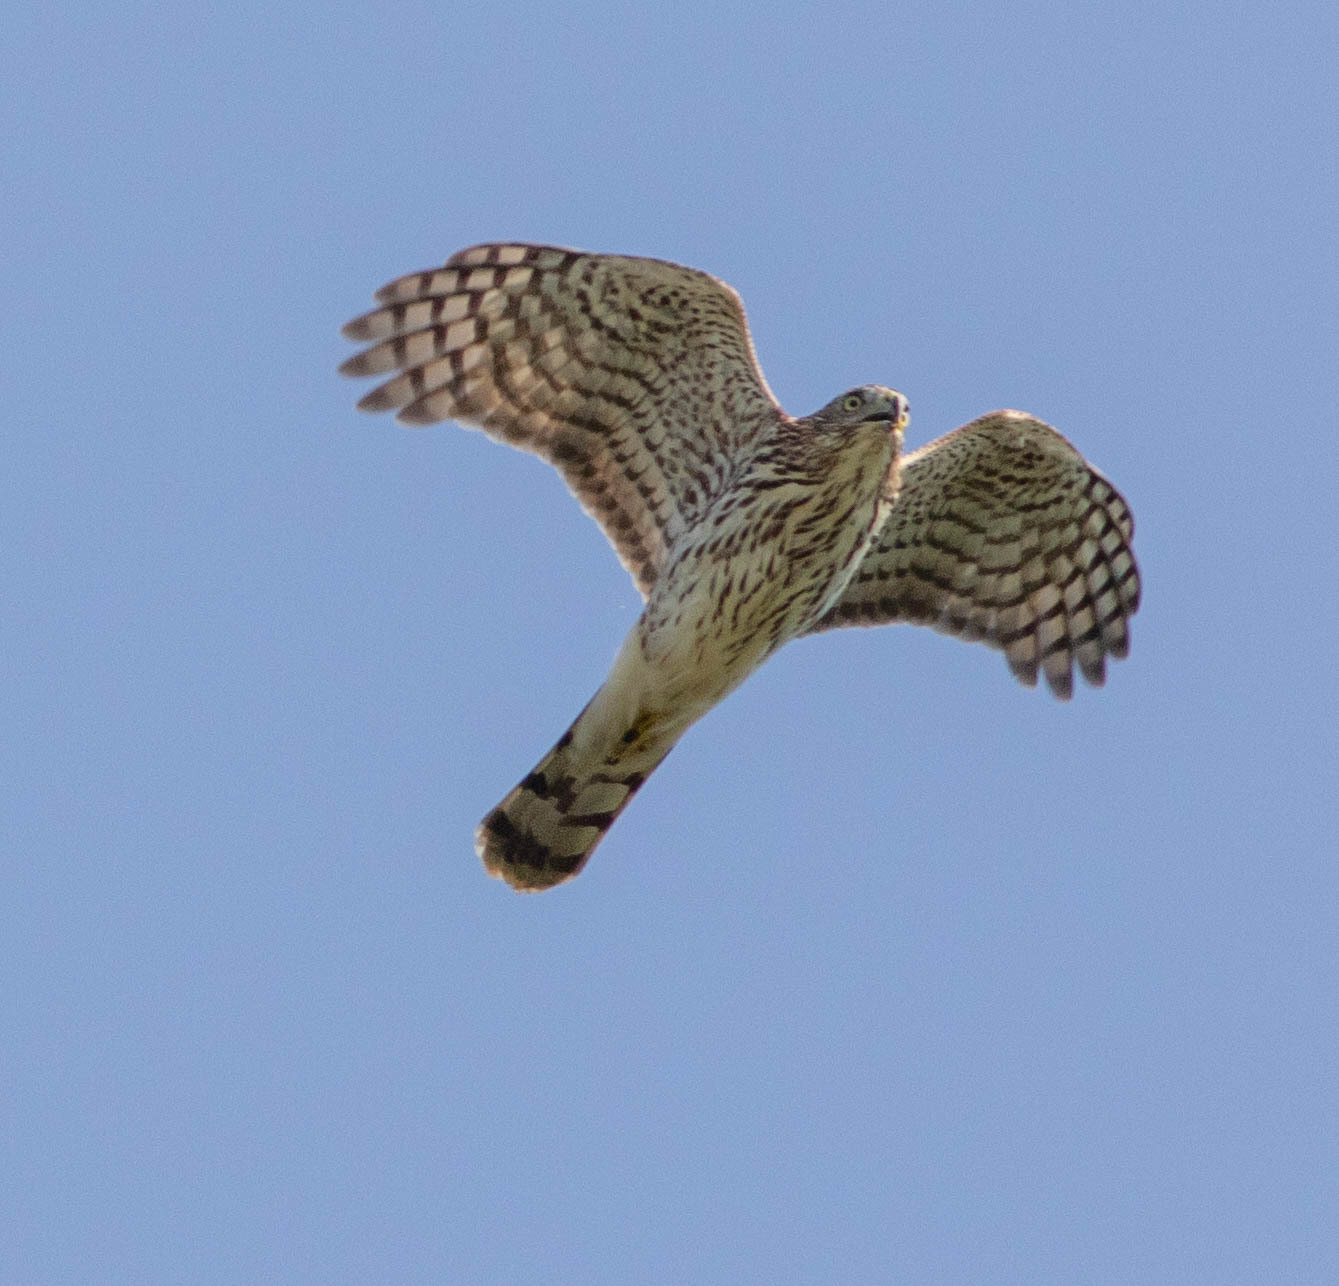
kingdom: Animalia
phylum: Chordata
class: Aves
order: Accipitriformes
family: Accipitridae
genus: Accipiter
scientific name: Accipiter cooperii
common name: Cooper's hawk
